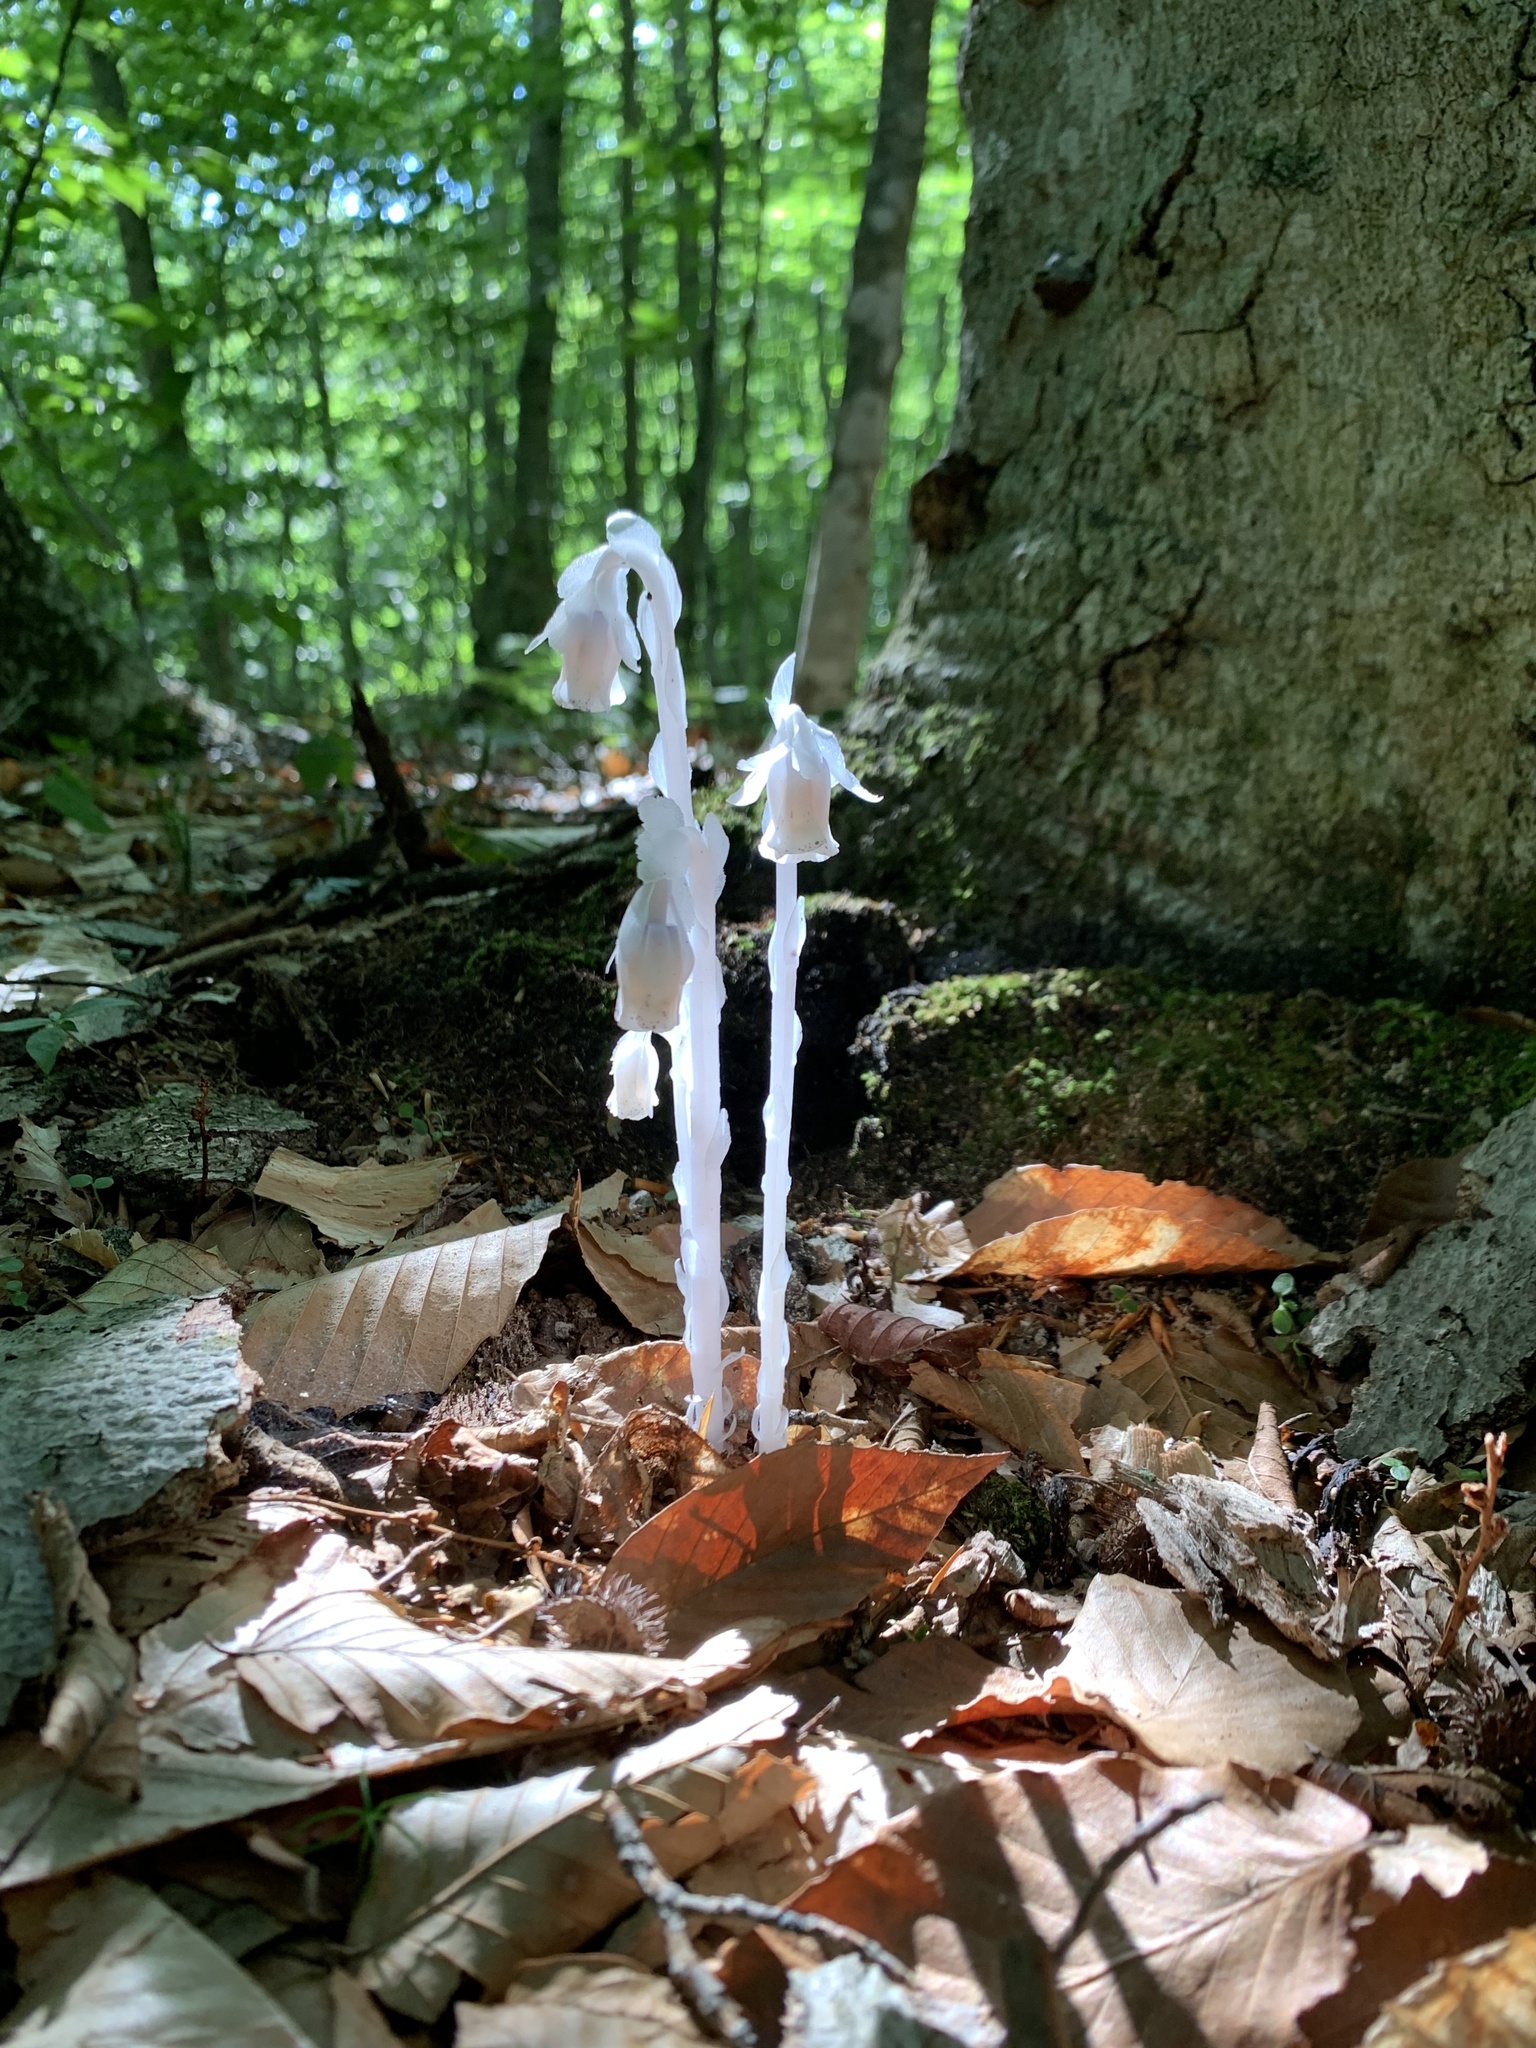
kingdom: Plantae
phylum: Tracheophyta
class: Magnoliopsida
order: Ericales
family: Ericaceae
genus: Monotropa
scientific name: Monotropa uniflora
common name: Convulsion root
